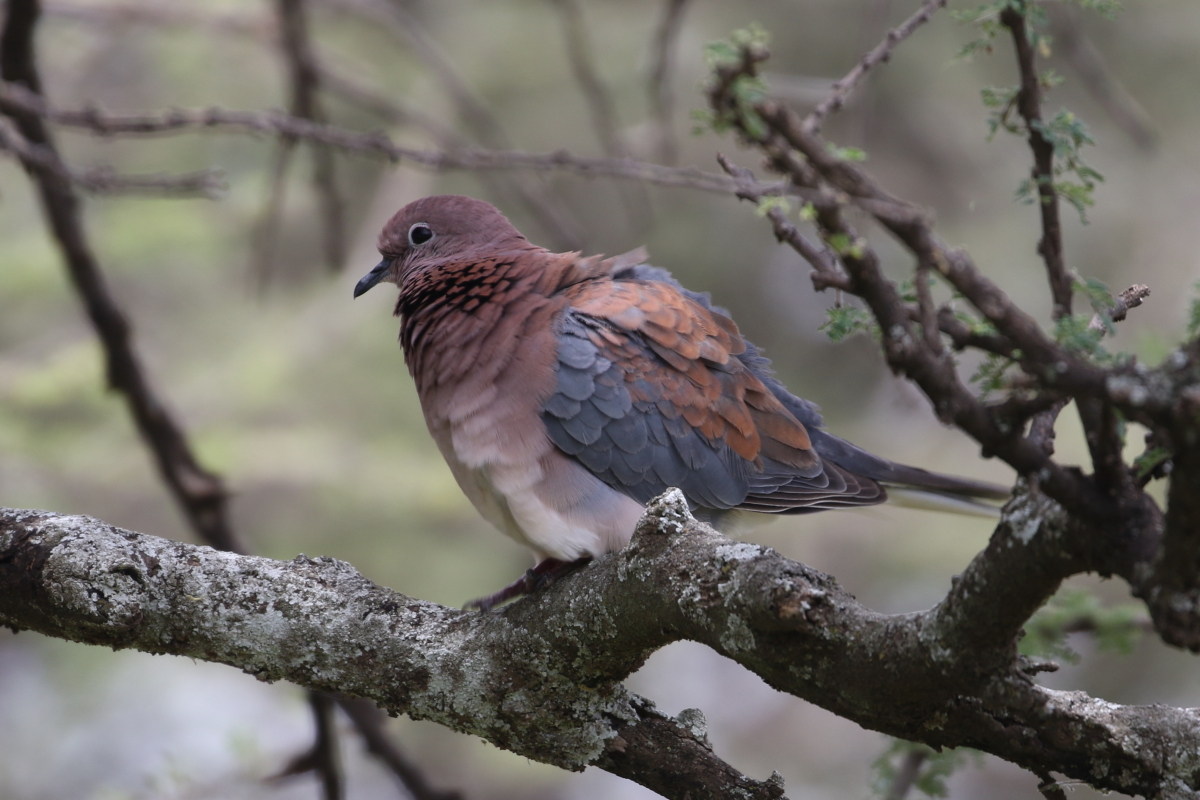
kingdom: Animalia
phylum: Chordata
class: Aves
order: Columbiformes
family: Columbidae
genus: Spilopelia
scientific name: Spilopelia senegalensis
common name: Laughing dove
